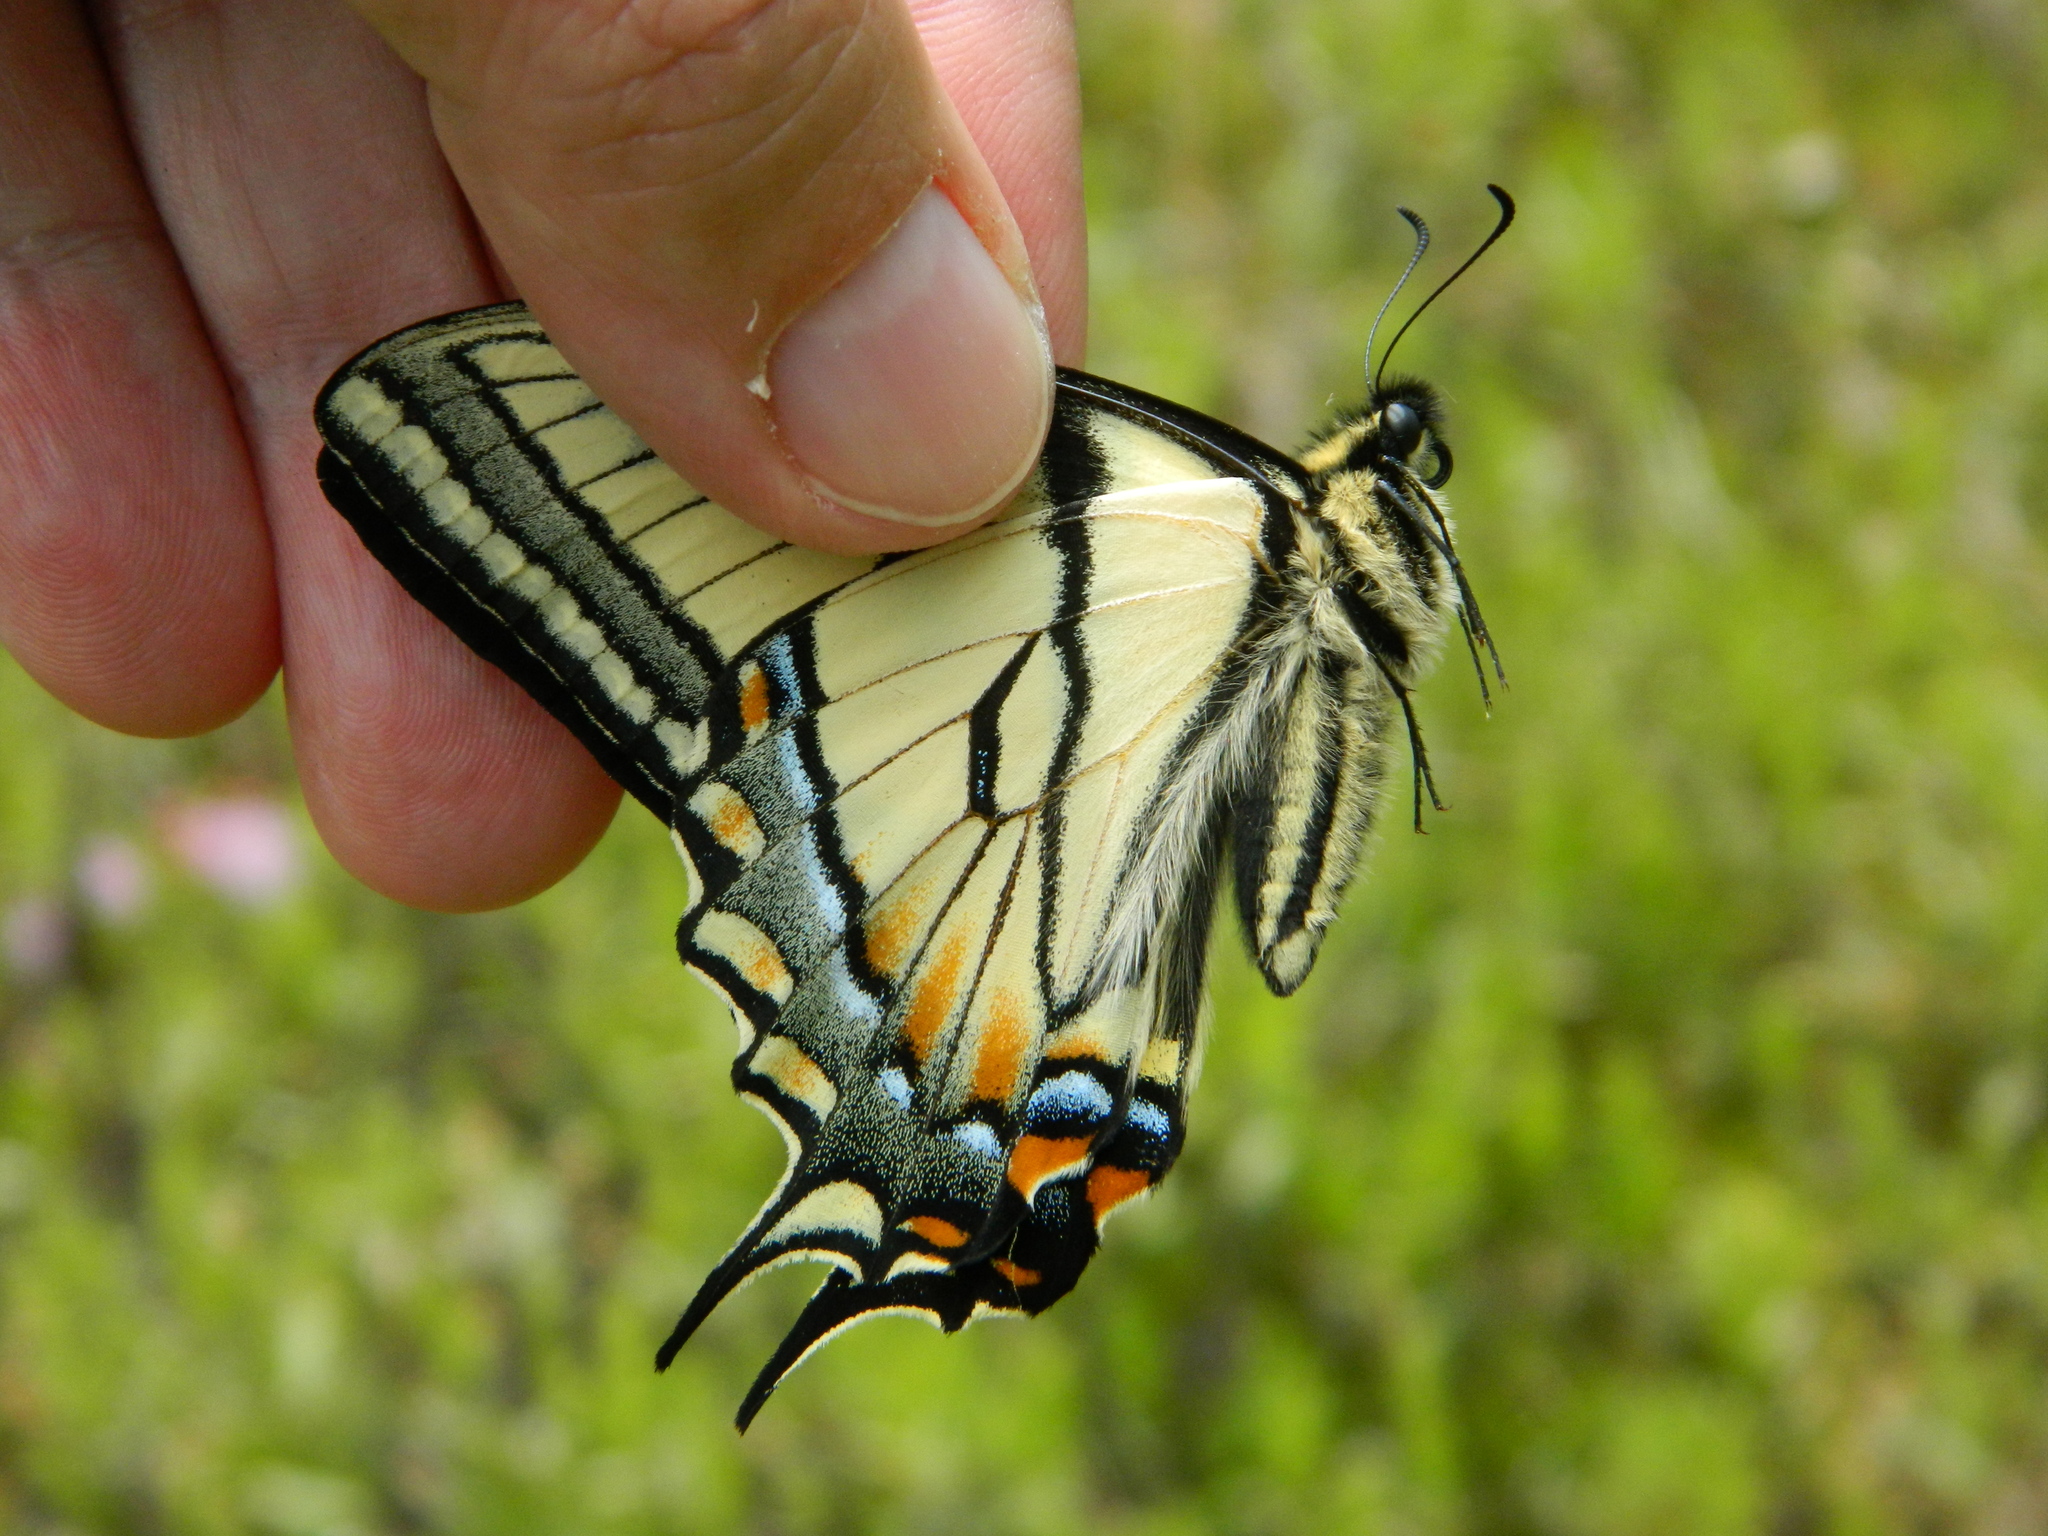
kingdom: Animalia
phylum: Arthropoda
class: Insecta
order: Lepidoptera
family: Papilionidae
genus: Papilio
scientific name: Papilio canadensis
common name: Canadian tiger swallowtail
